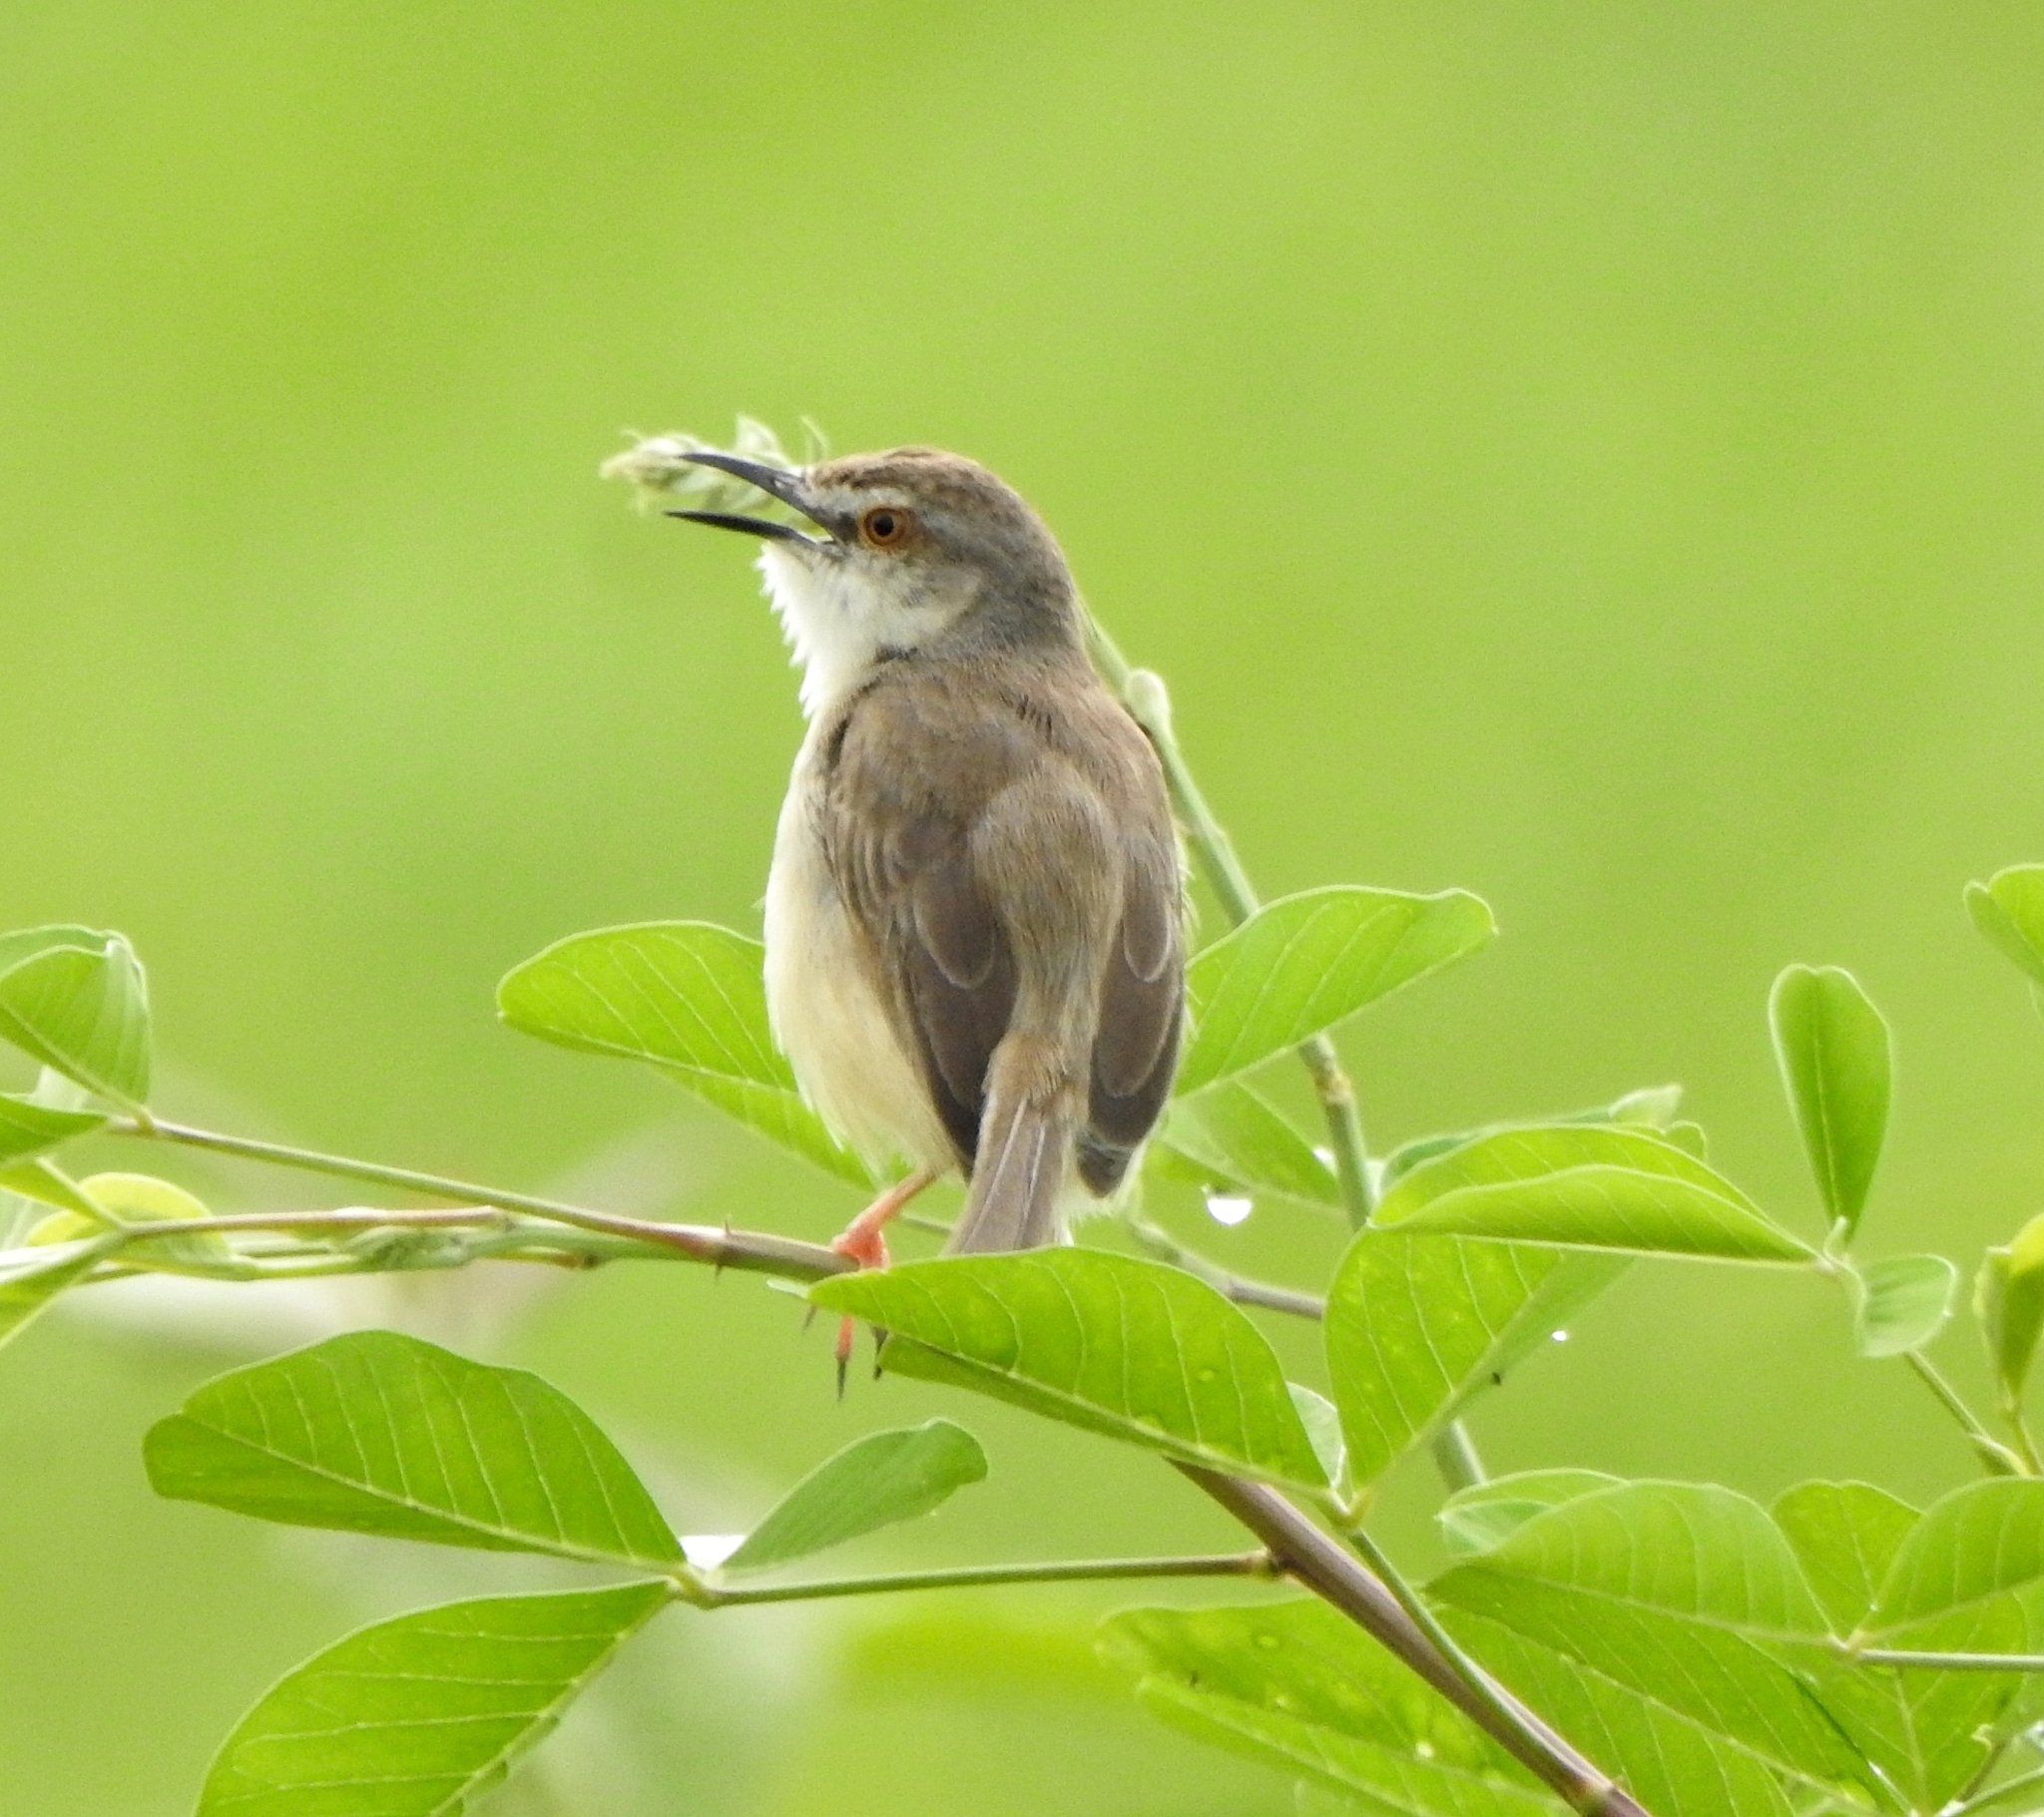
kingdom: Animalia
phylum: Chordata
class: Aves
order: Passeriformes
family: Cisticolidae
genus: Prinia
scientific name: Prinia inornata
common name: Plain prinia
